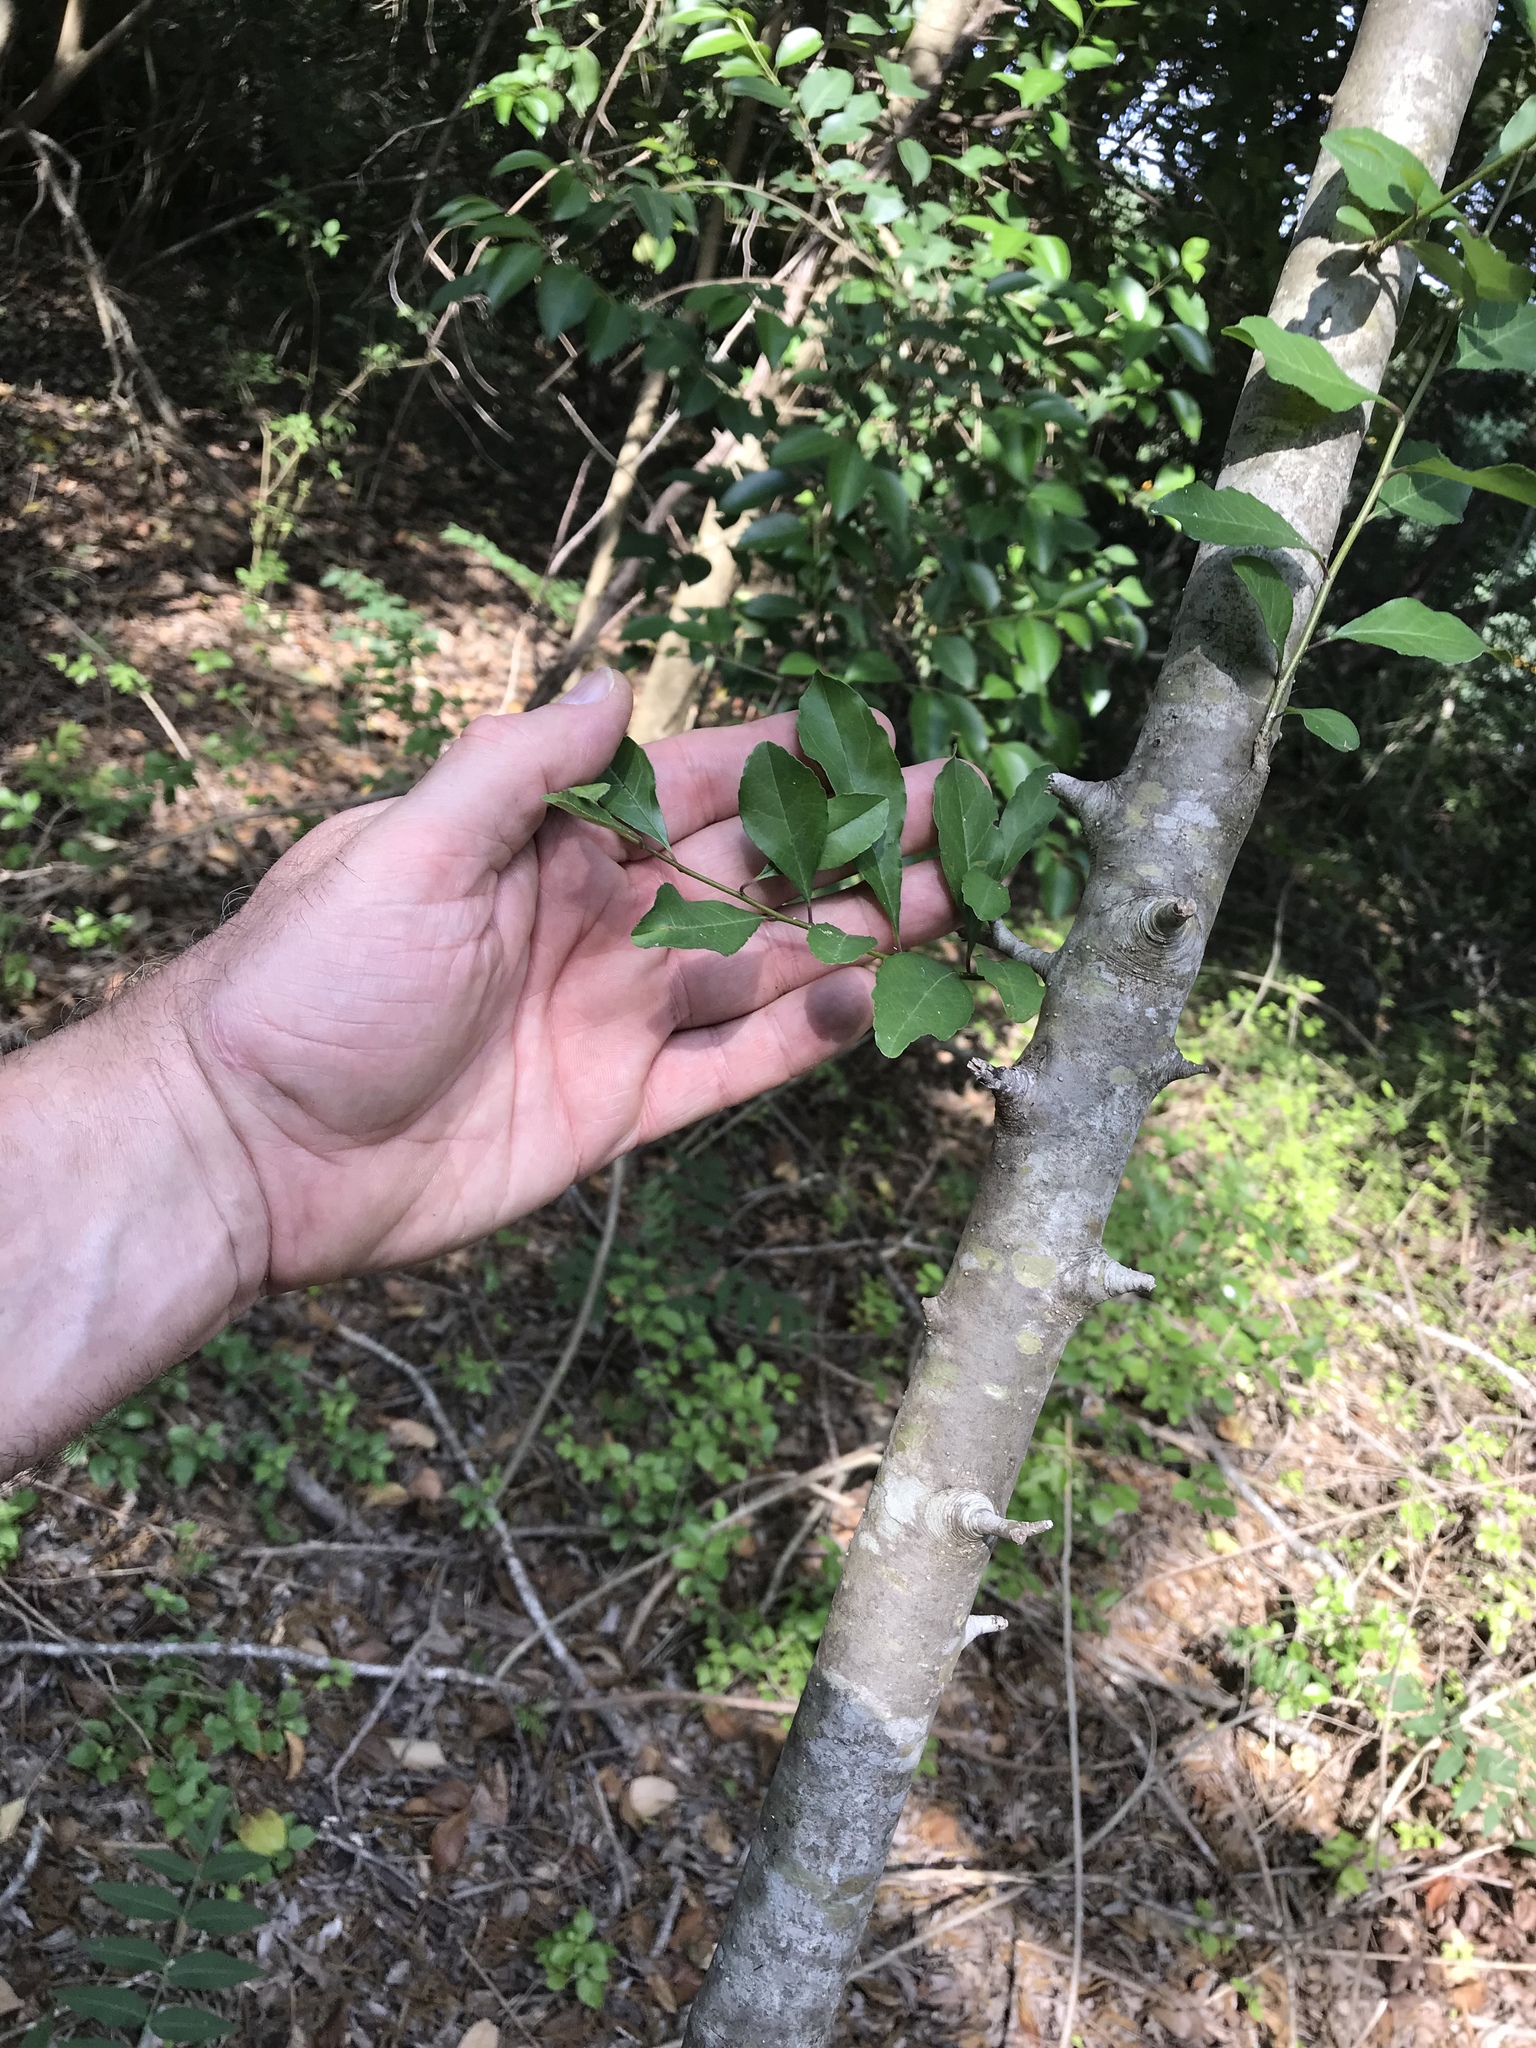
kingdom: Plantae
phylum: Tracheophyta
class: Magnoliopsida
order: Aquifoliales
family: Aquifoliaceae
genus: Ilex
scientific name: Ilex decidua
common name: Possum-haw
